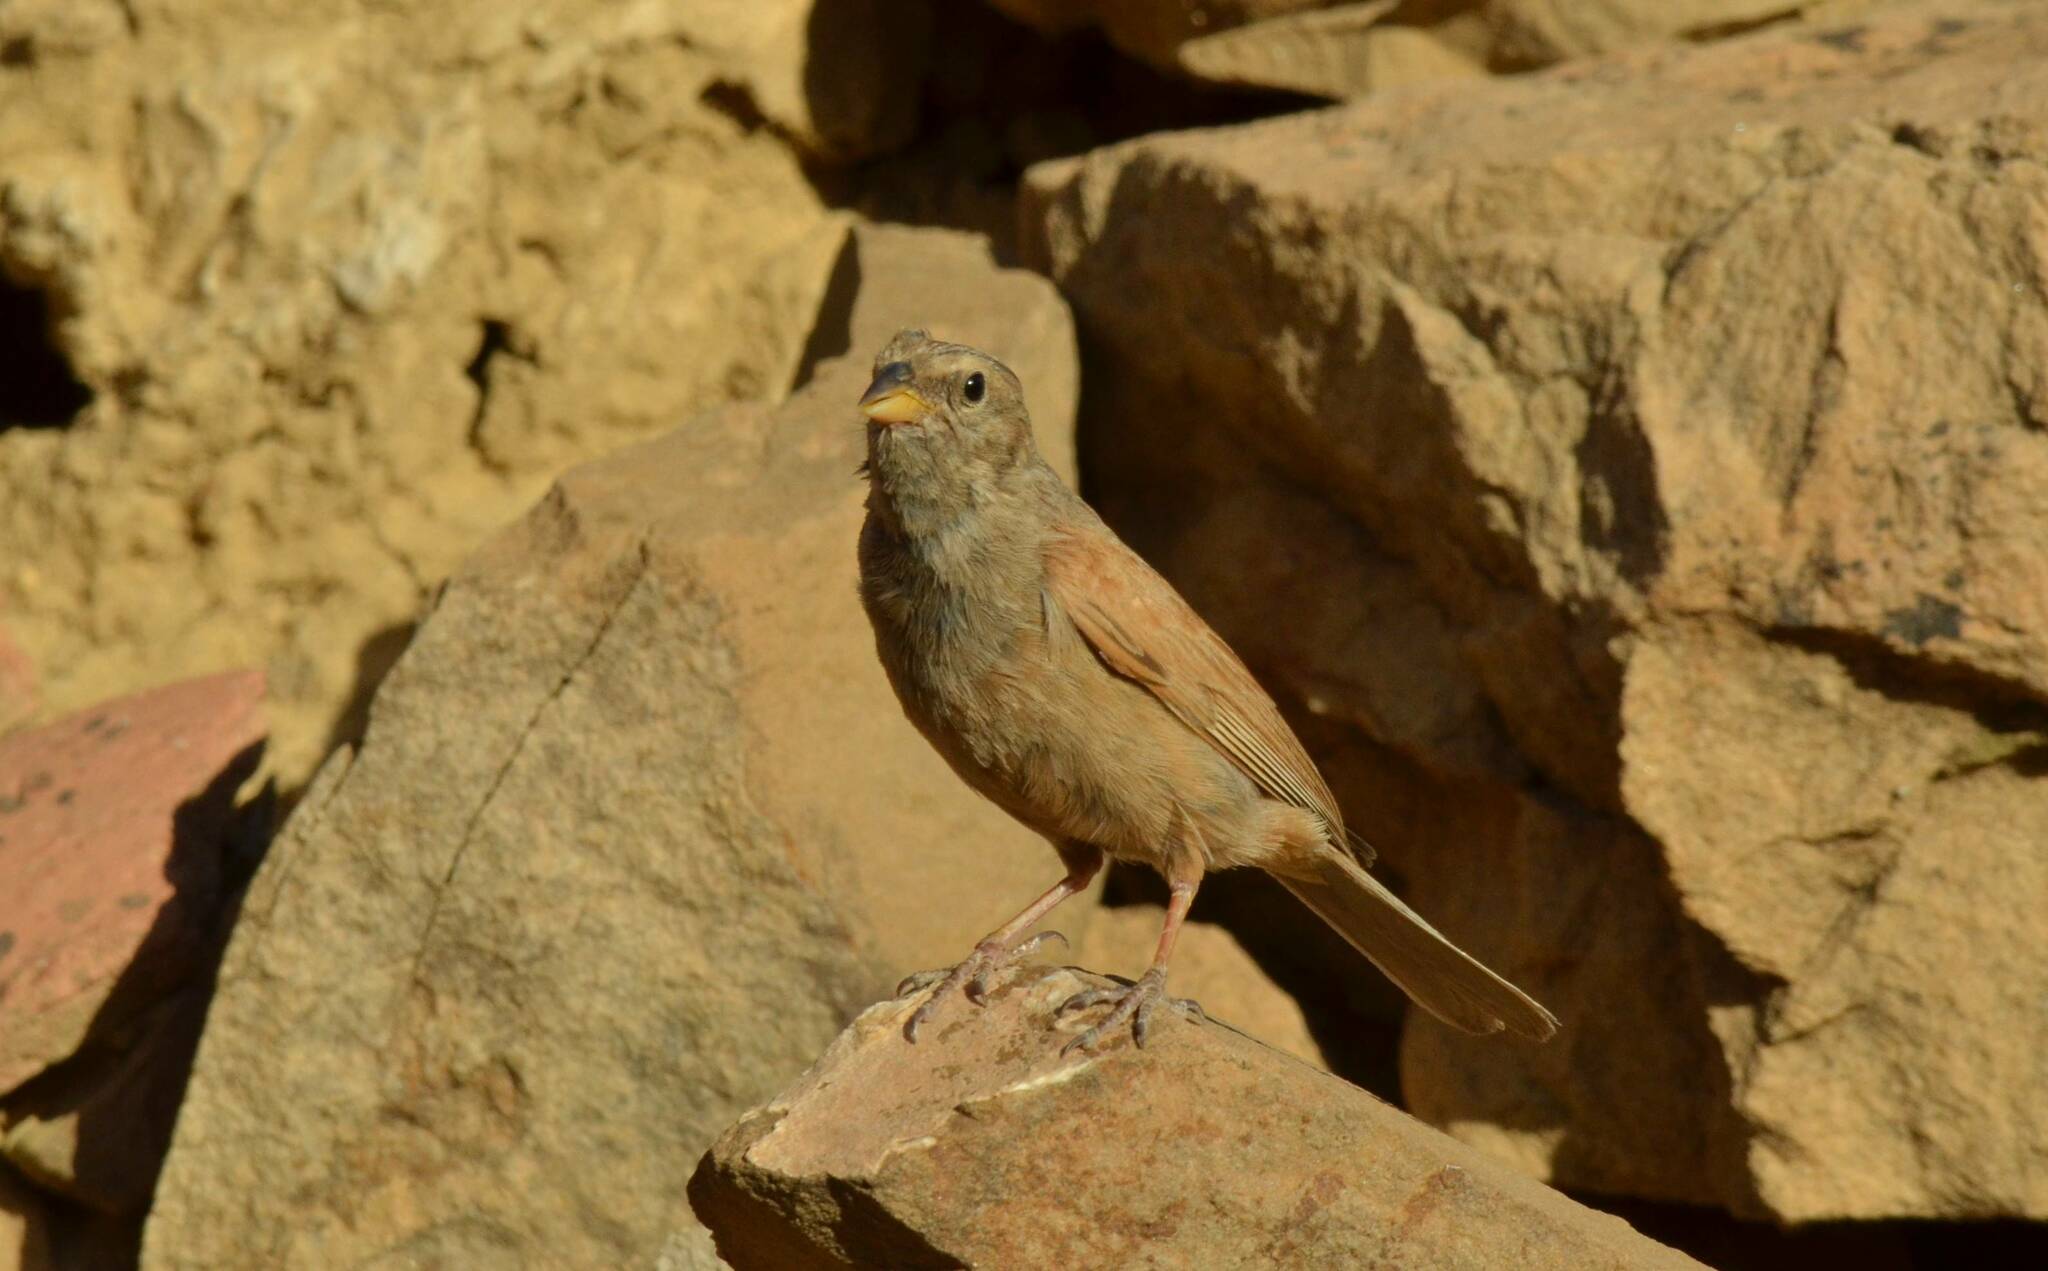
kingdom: Animalia
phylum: Chordata
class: Aves
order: Passeriformes
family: Emberizidae
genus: Emberiza
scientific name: Emberiza sahari
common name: House bunting
